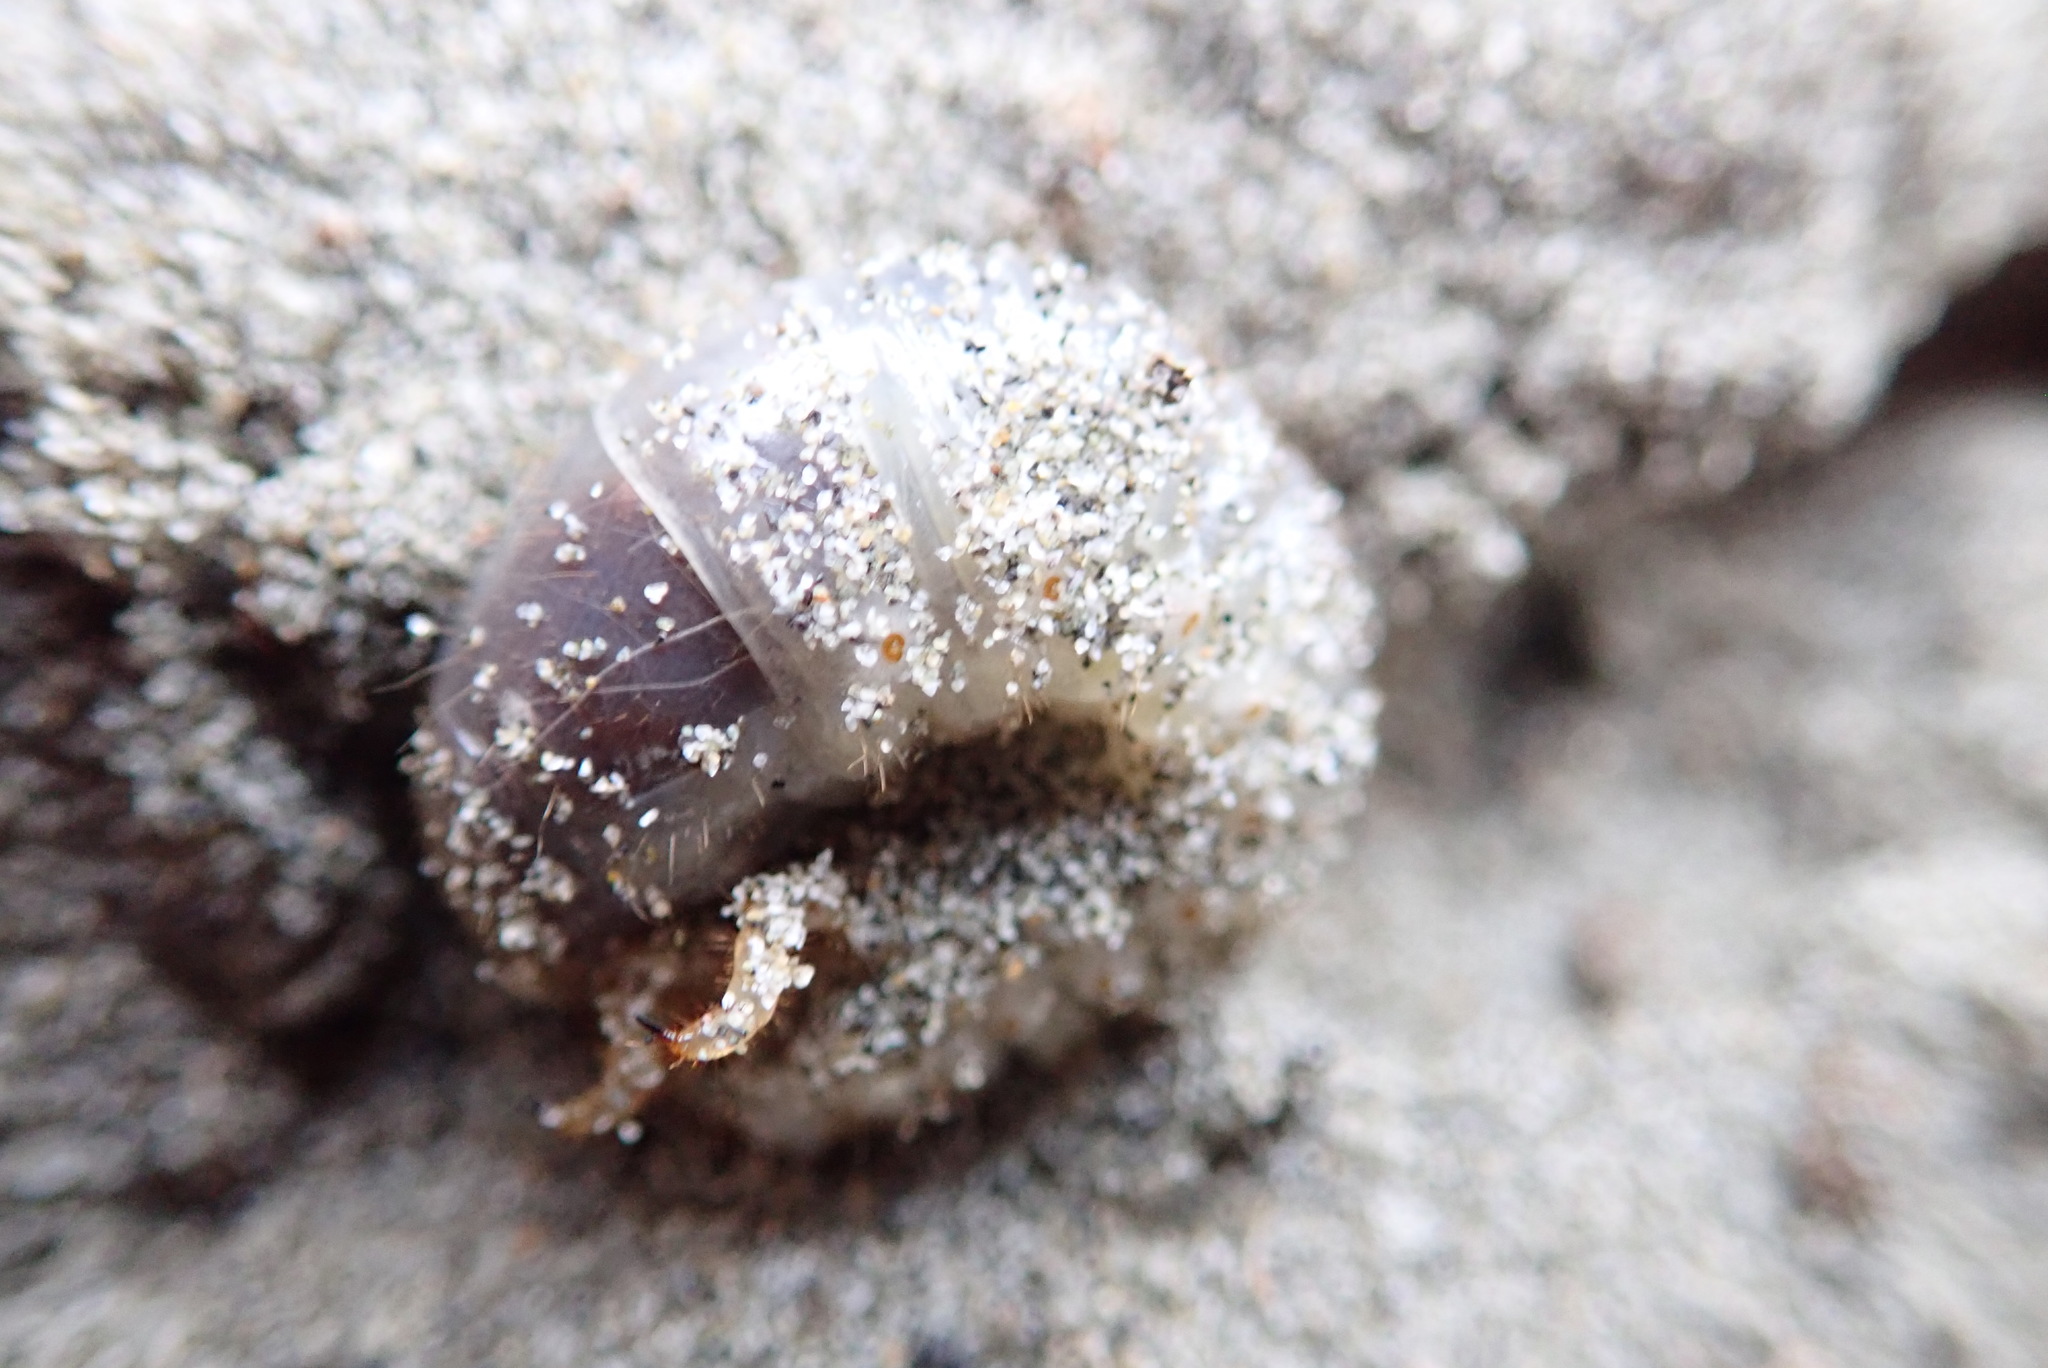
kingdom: Animalia
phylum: Arthropoda
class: Insecta
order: Coleoptera
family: Scarabaeidae
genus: Pericoptus
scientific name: Pericoptus truncatus
